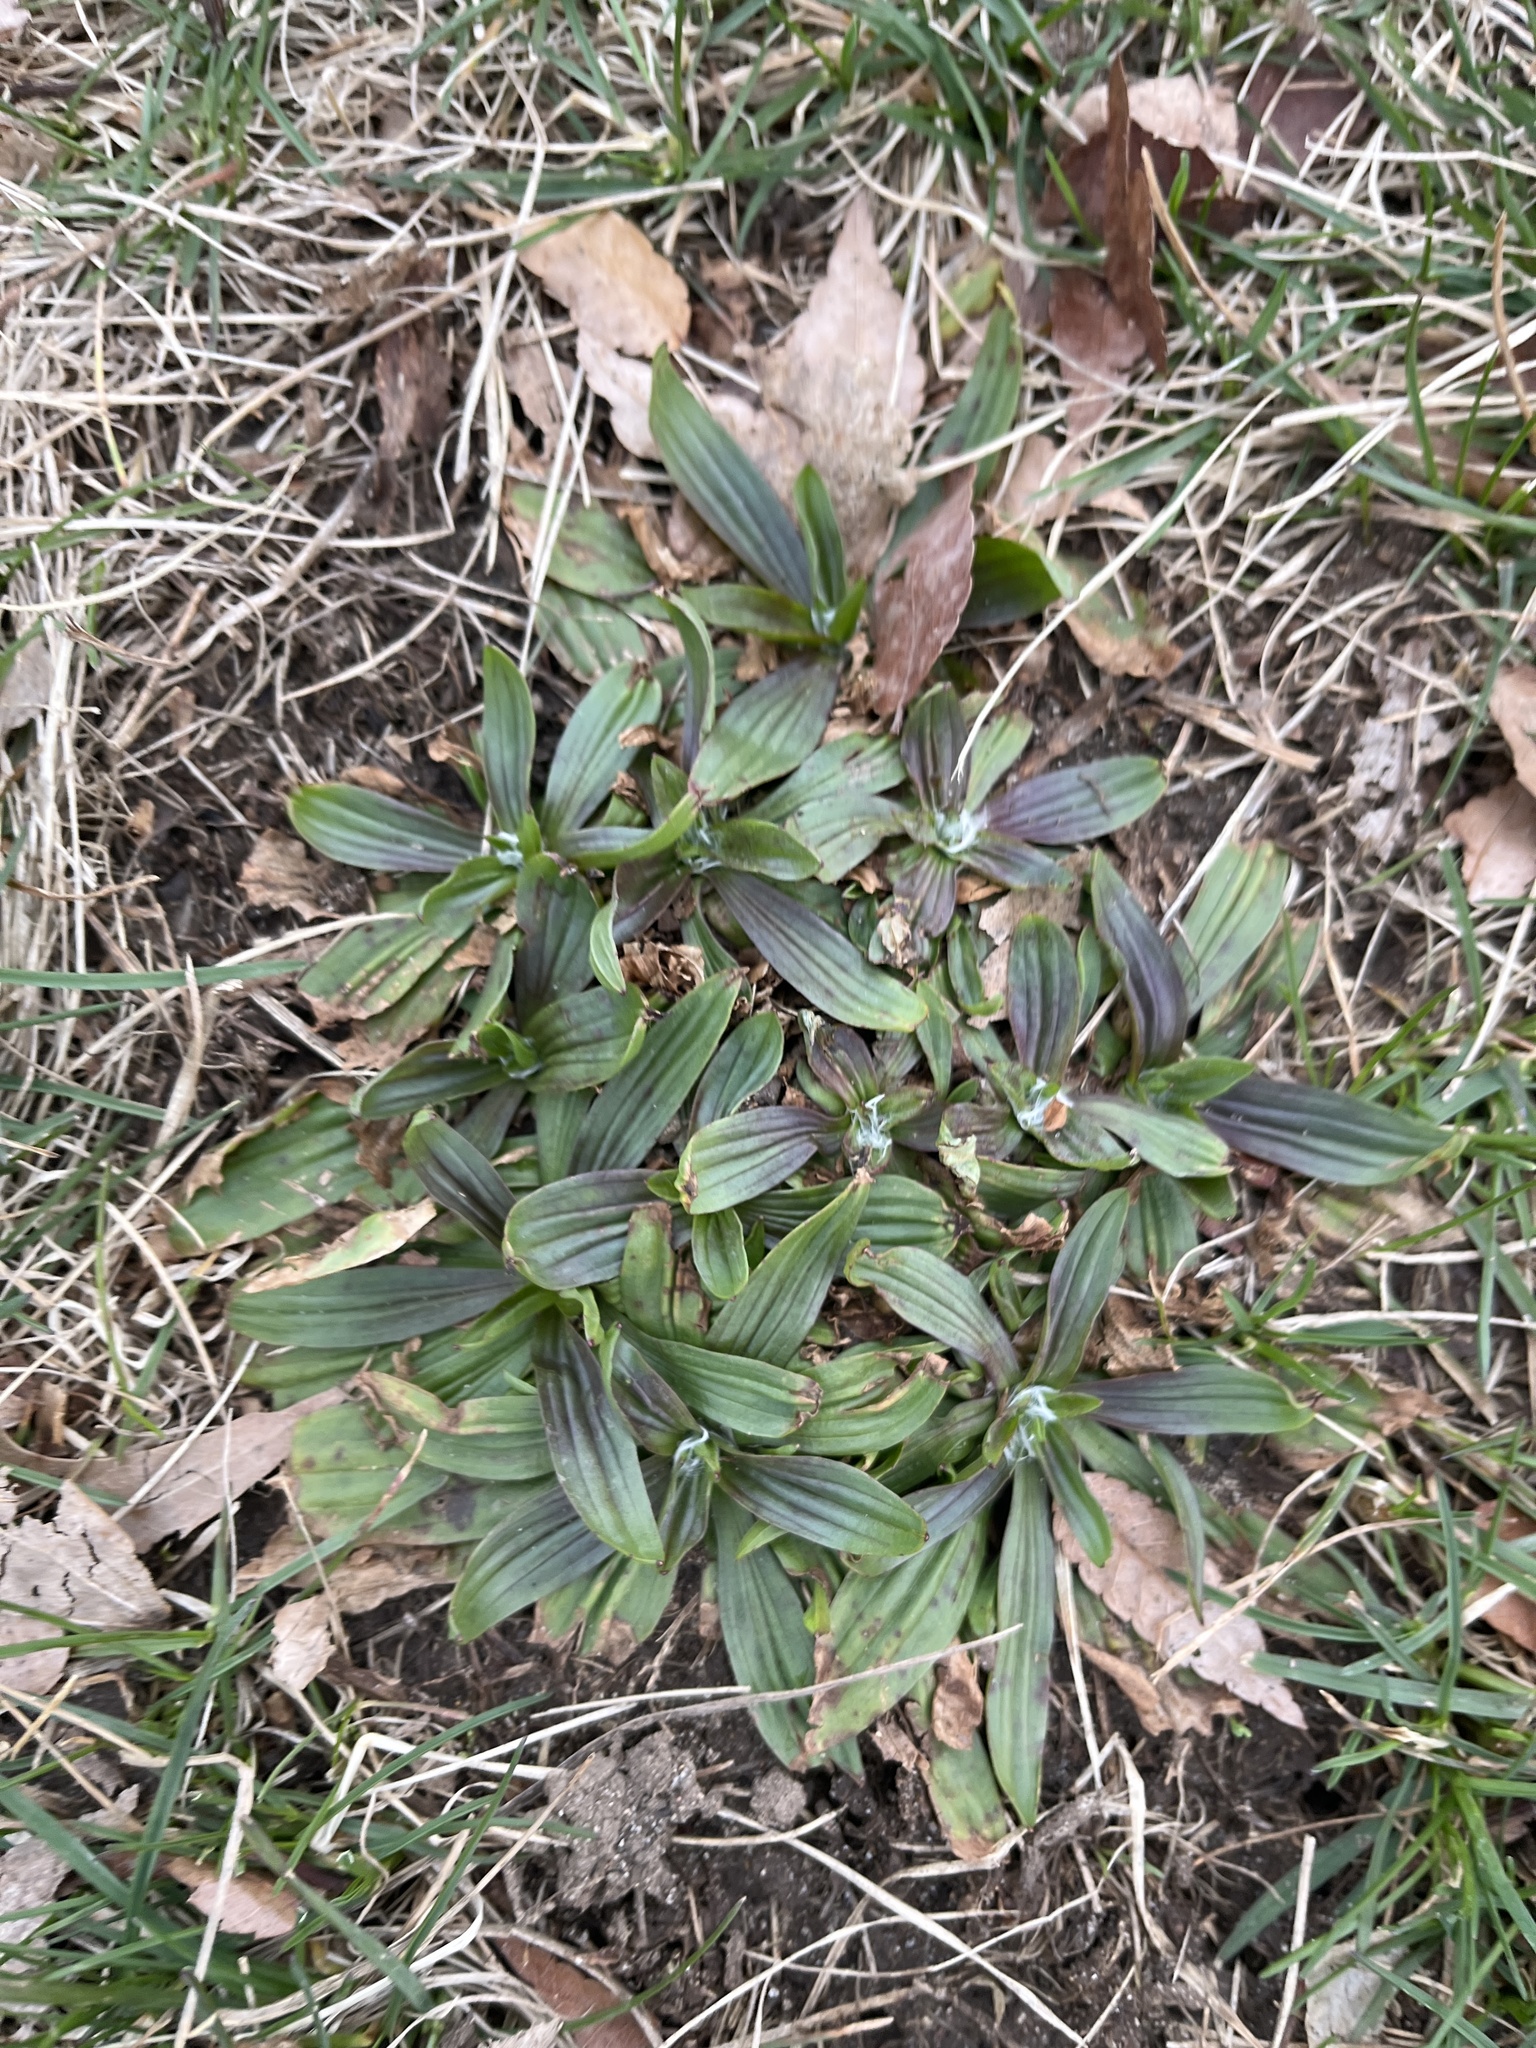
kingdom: Plantae
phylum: Tracheophyta
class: Magnoliopsida
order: Lamiales
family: Plantaginaceae
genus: Plantago
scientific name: Plantago lanceolata
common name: Ribwort plantain
